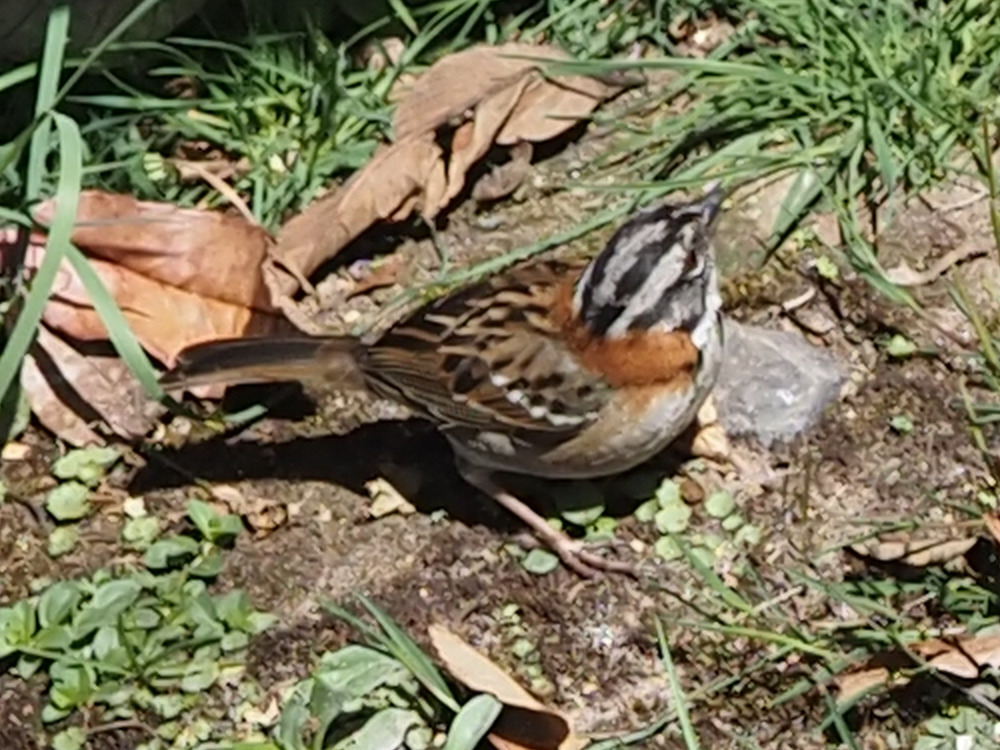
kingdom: Animalia
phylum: Chordata
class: Aves
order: Passeriformes
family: Passerellidae
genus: Zonotrichia
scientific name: Zonotrichia capensis
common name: Rufous-collared sparrow
